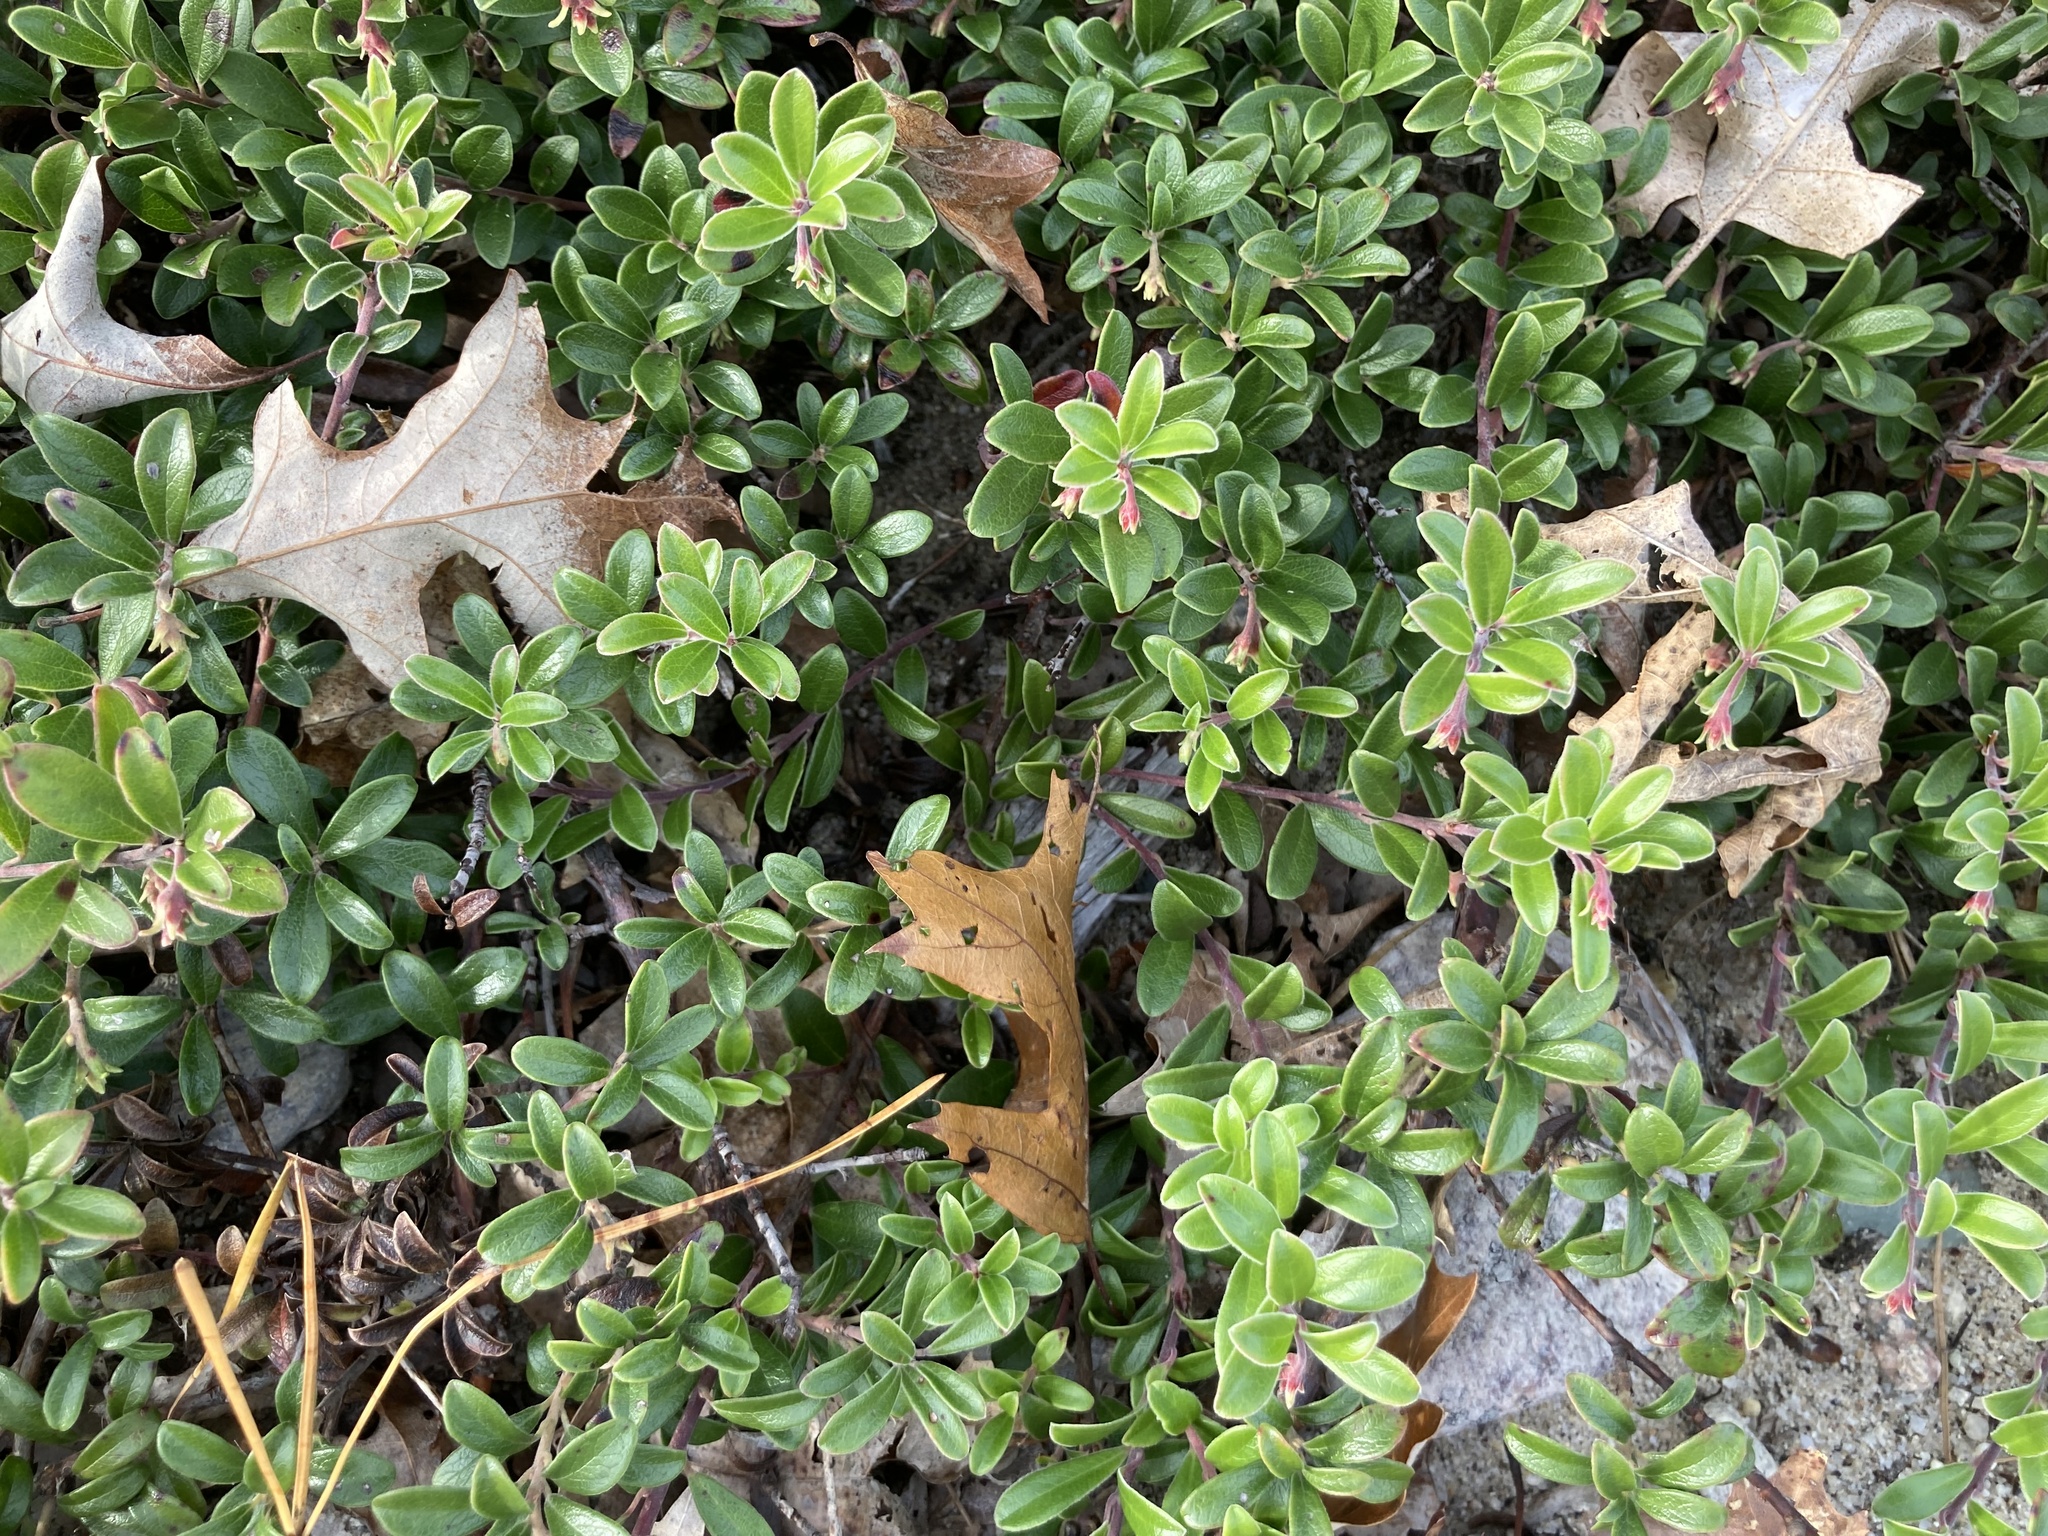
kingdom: Plantae
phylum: Tracheophyta
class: Magnoliopsida
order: Ericales
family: Ericaceae
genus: Arctostaphylos
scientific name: Arctostaphylos uva-ursi
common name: Bearberry
